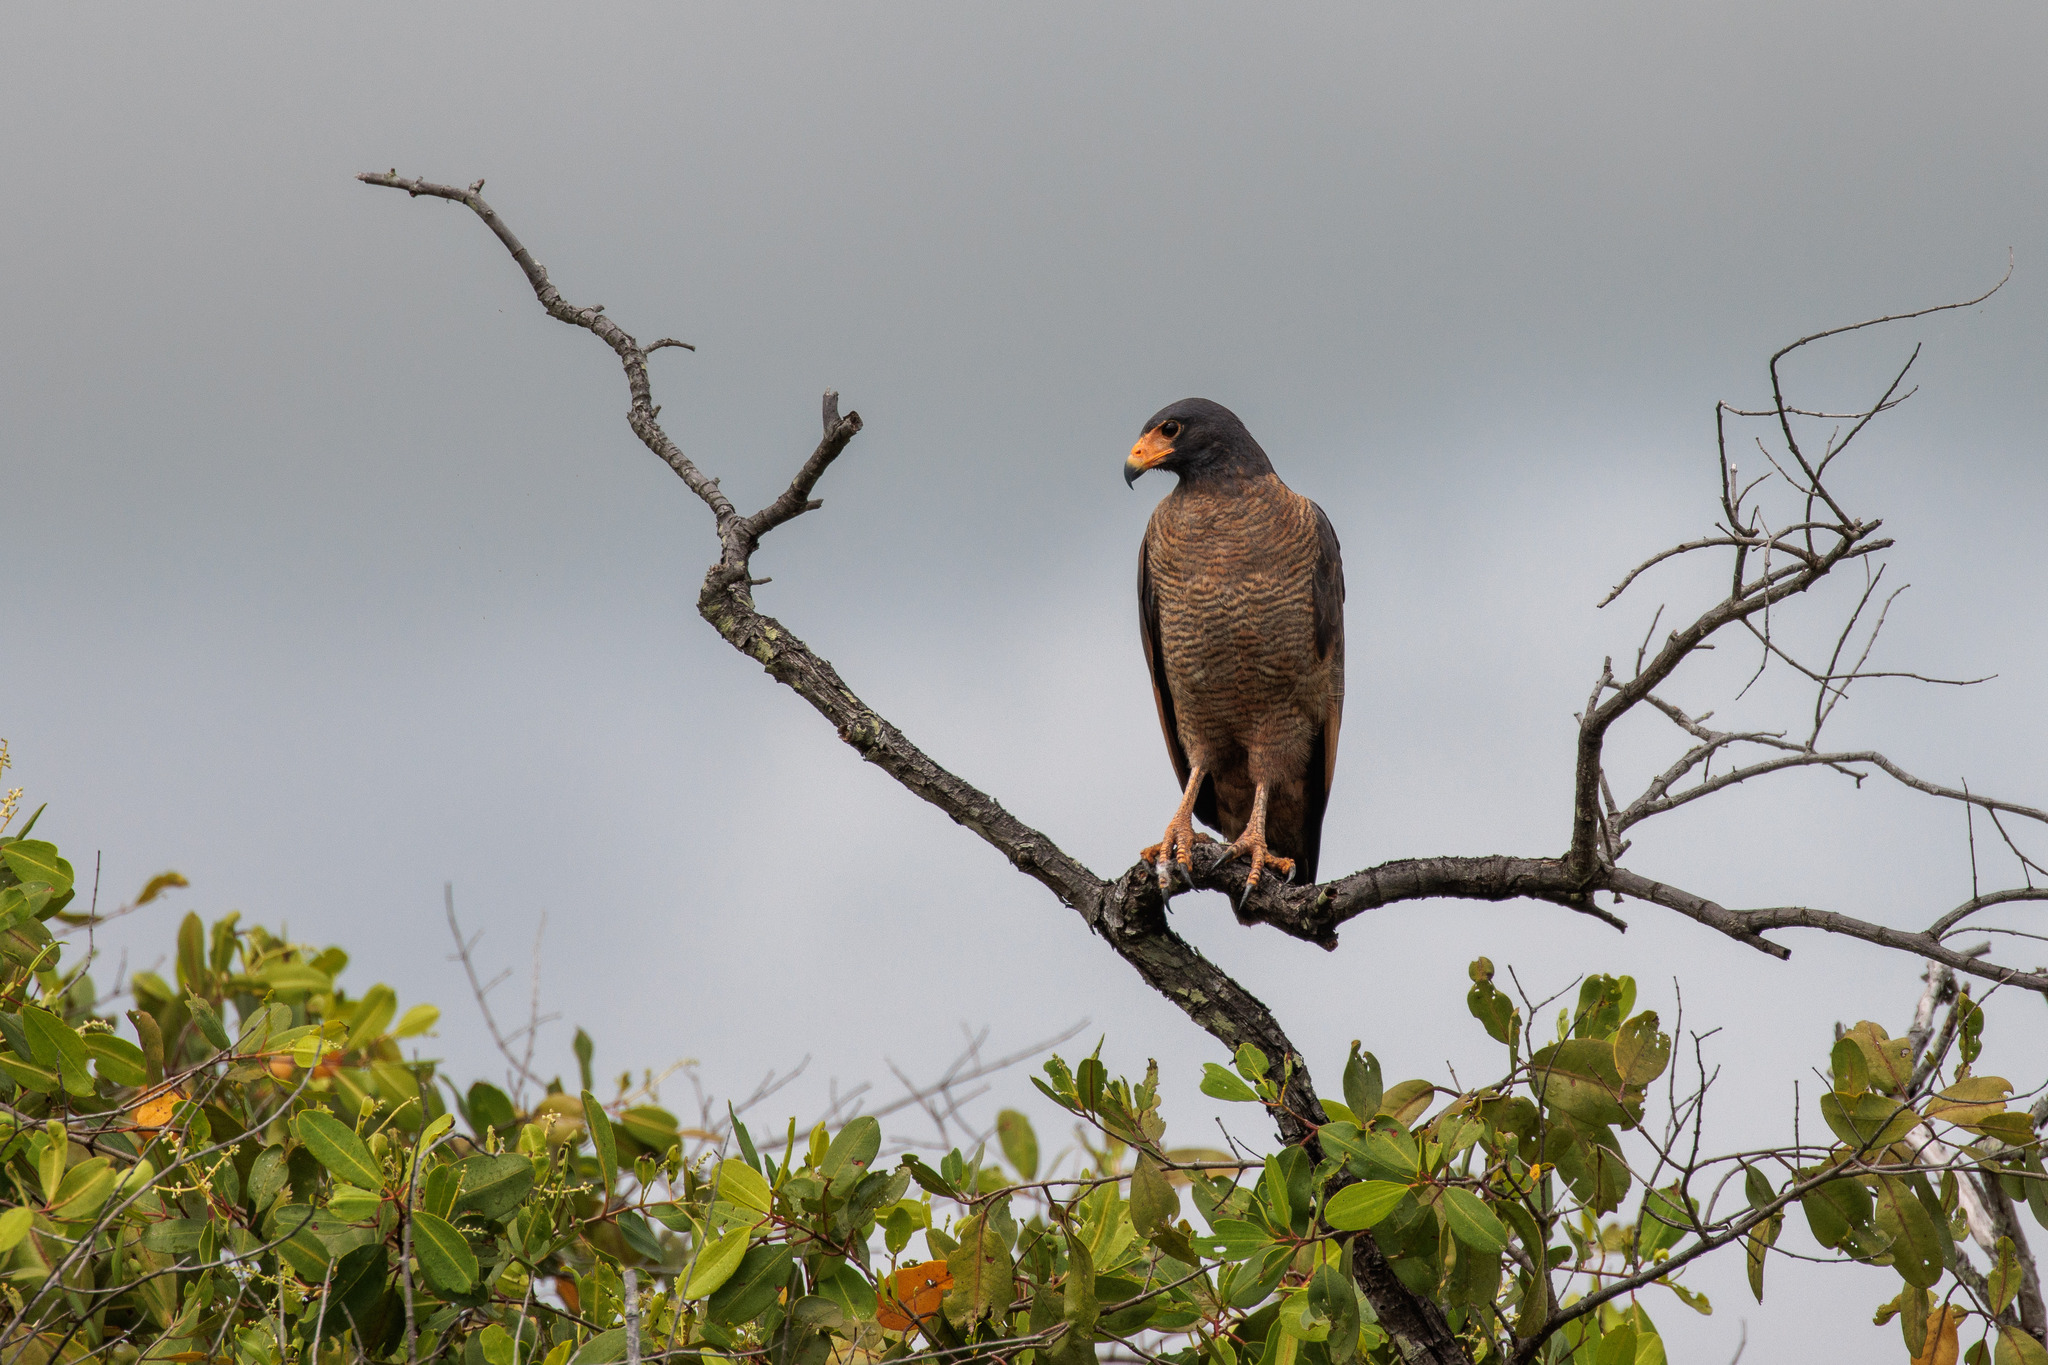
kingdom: Animalia
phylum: Chordata
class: Aves
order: Accipitriformes
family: Accipitridae
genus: Buteogallus
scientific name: Buteogallus aequinoctialis
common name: Rufous crab hawk
